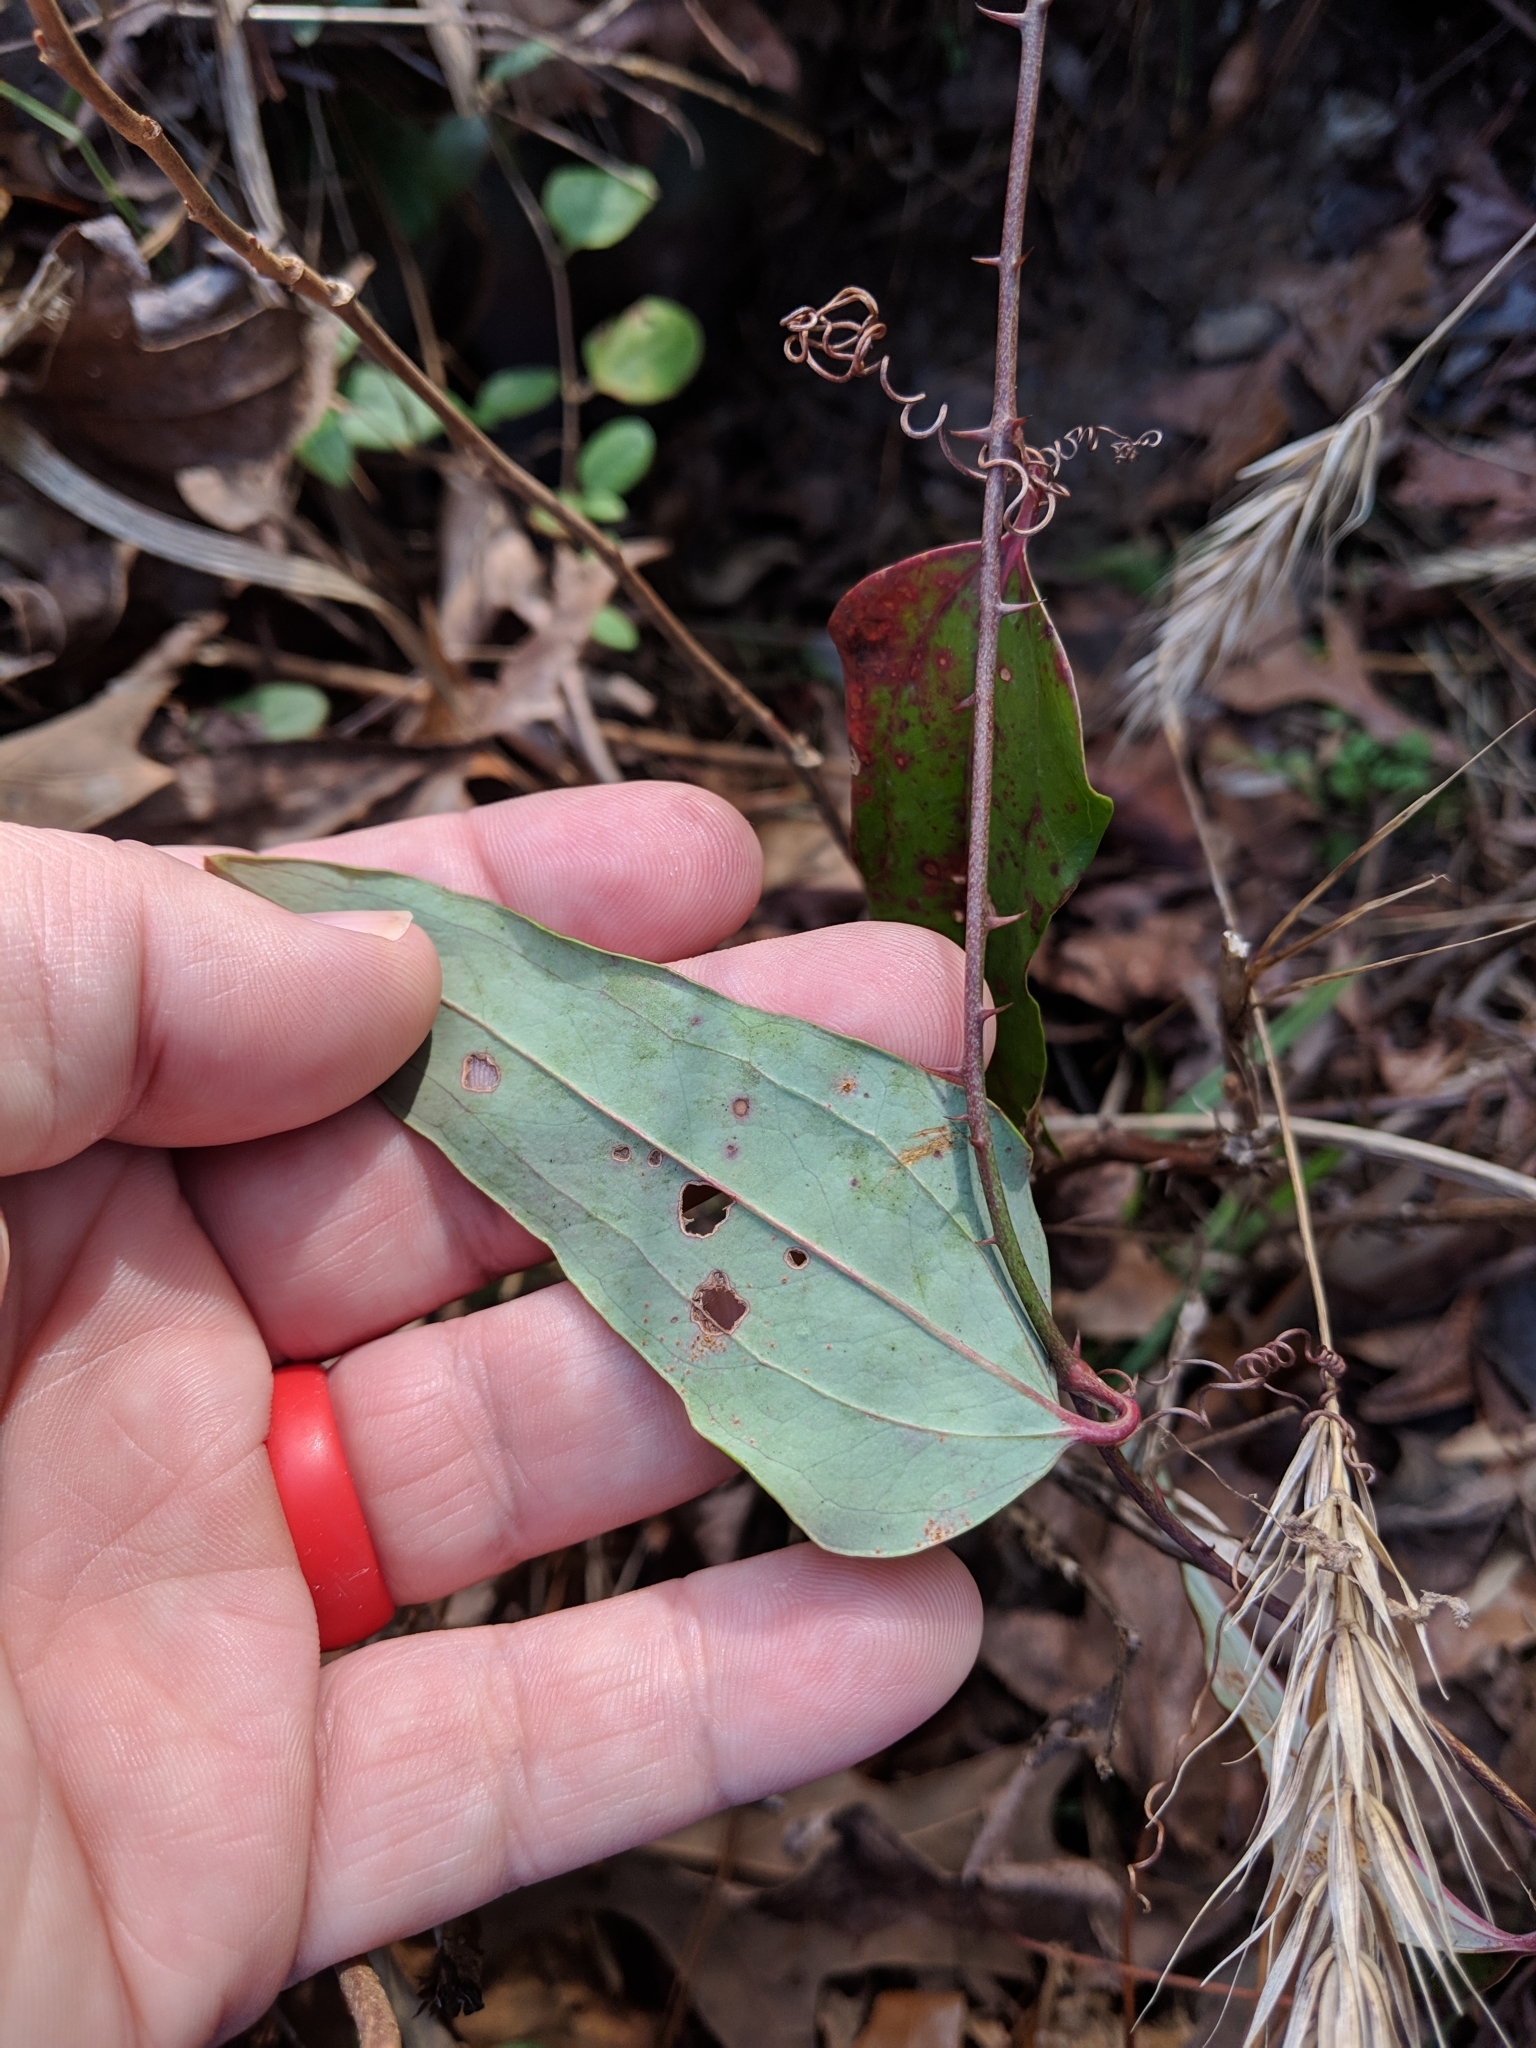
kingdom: Plantae
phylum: Tracheophyta
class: Liliopsida
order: Liliales
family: Smilacaceae
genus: Smilax
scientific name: Smilax glauca
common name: Cat greenbrier
